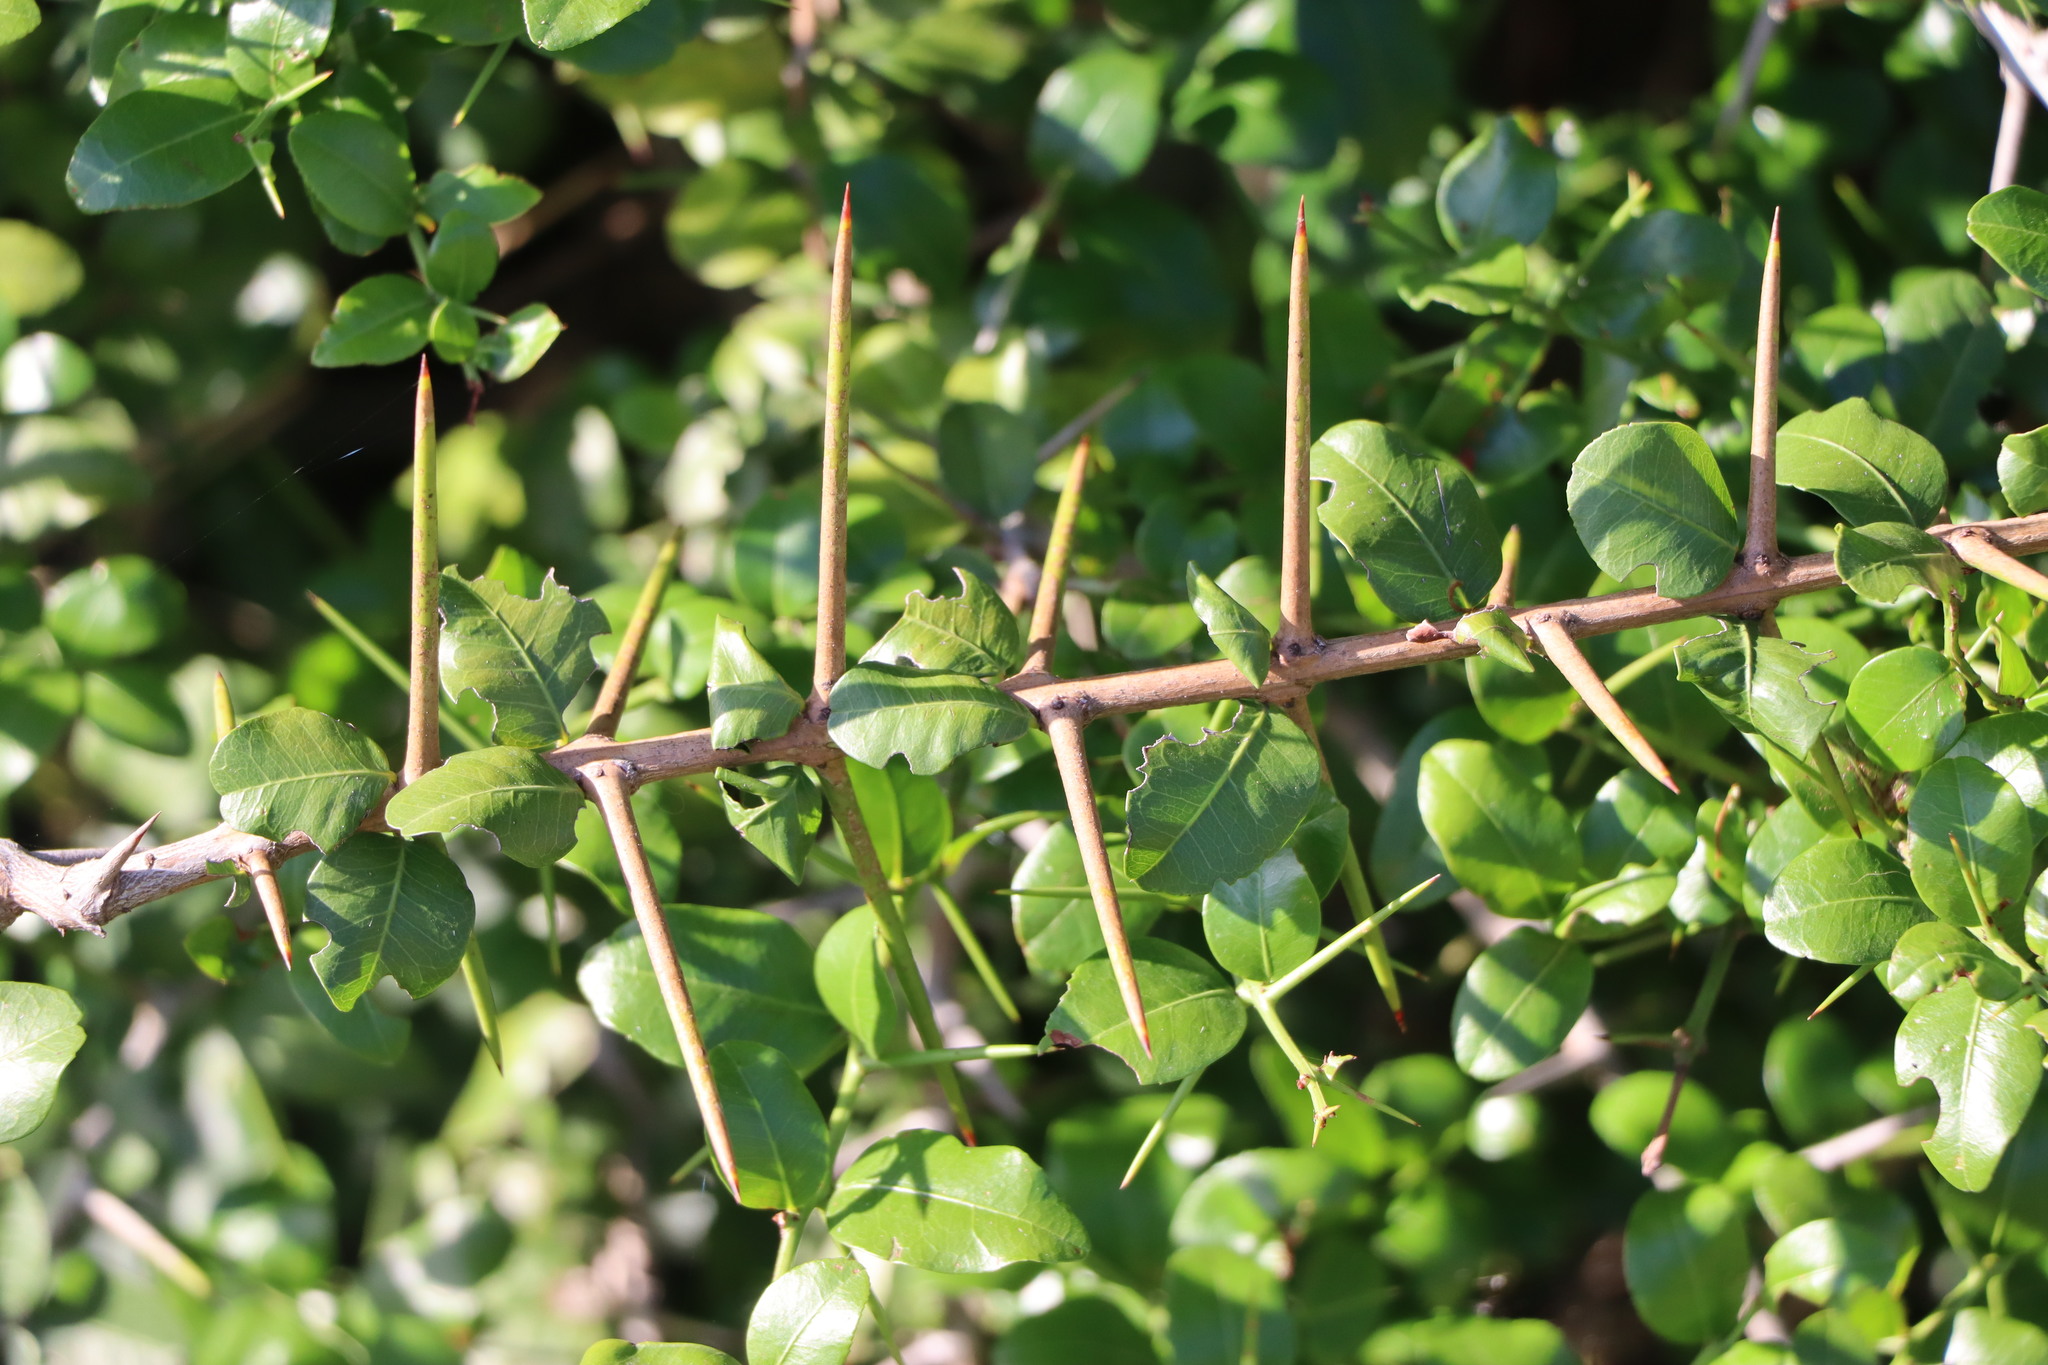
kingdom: Plantae
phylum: Tracheophyta
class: Magnoliopsida
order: Rosales
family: Rhamnaceae
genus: Scutia
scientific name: Scutia buxifolia
